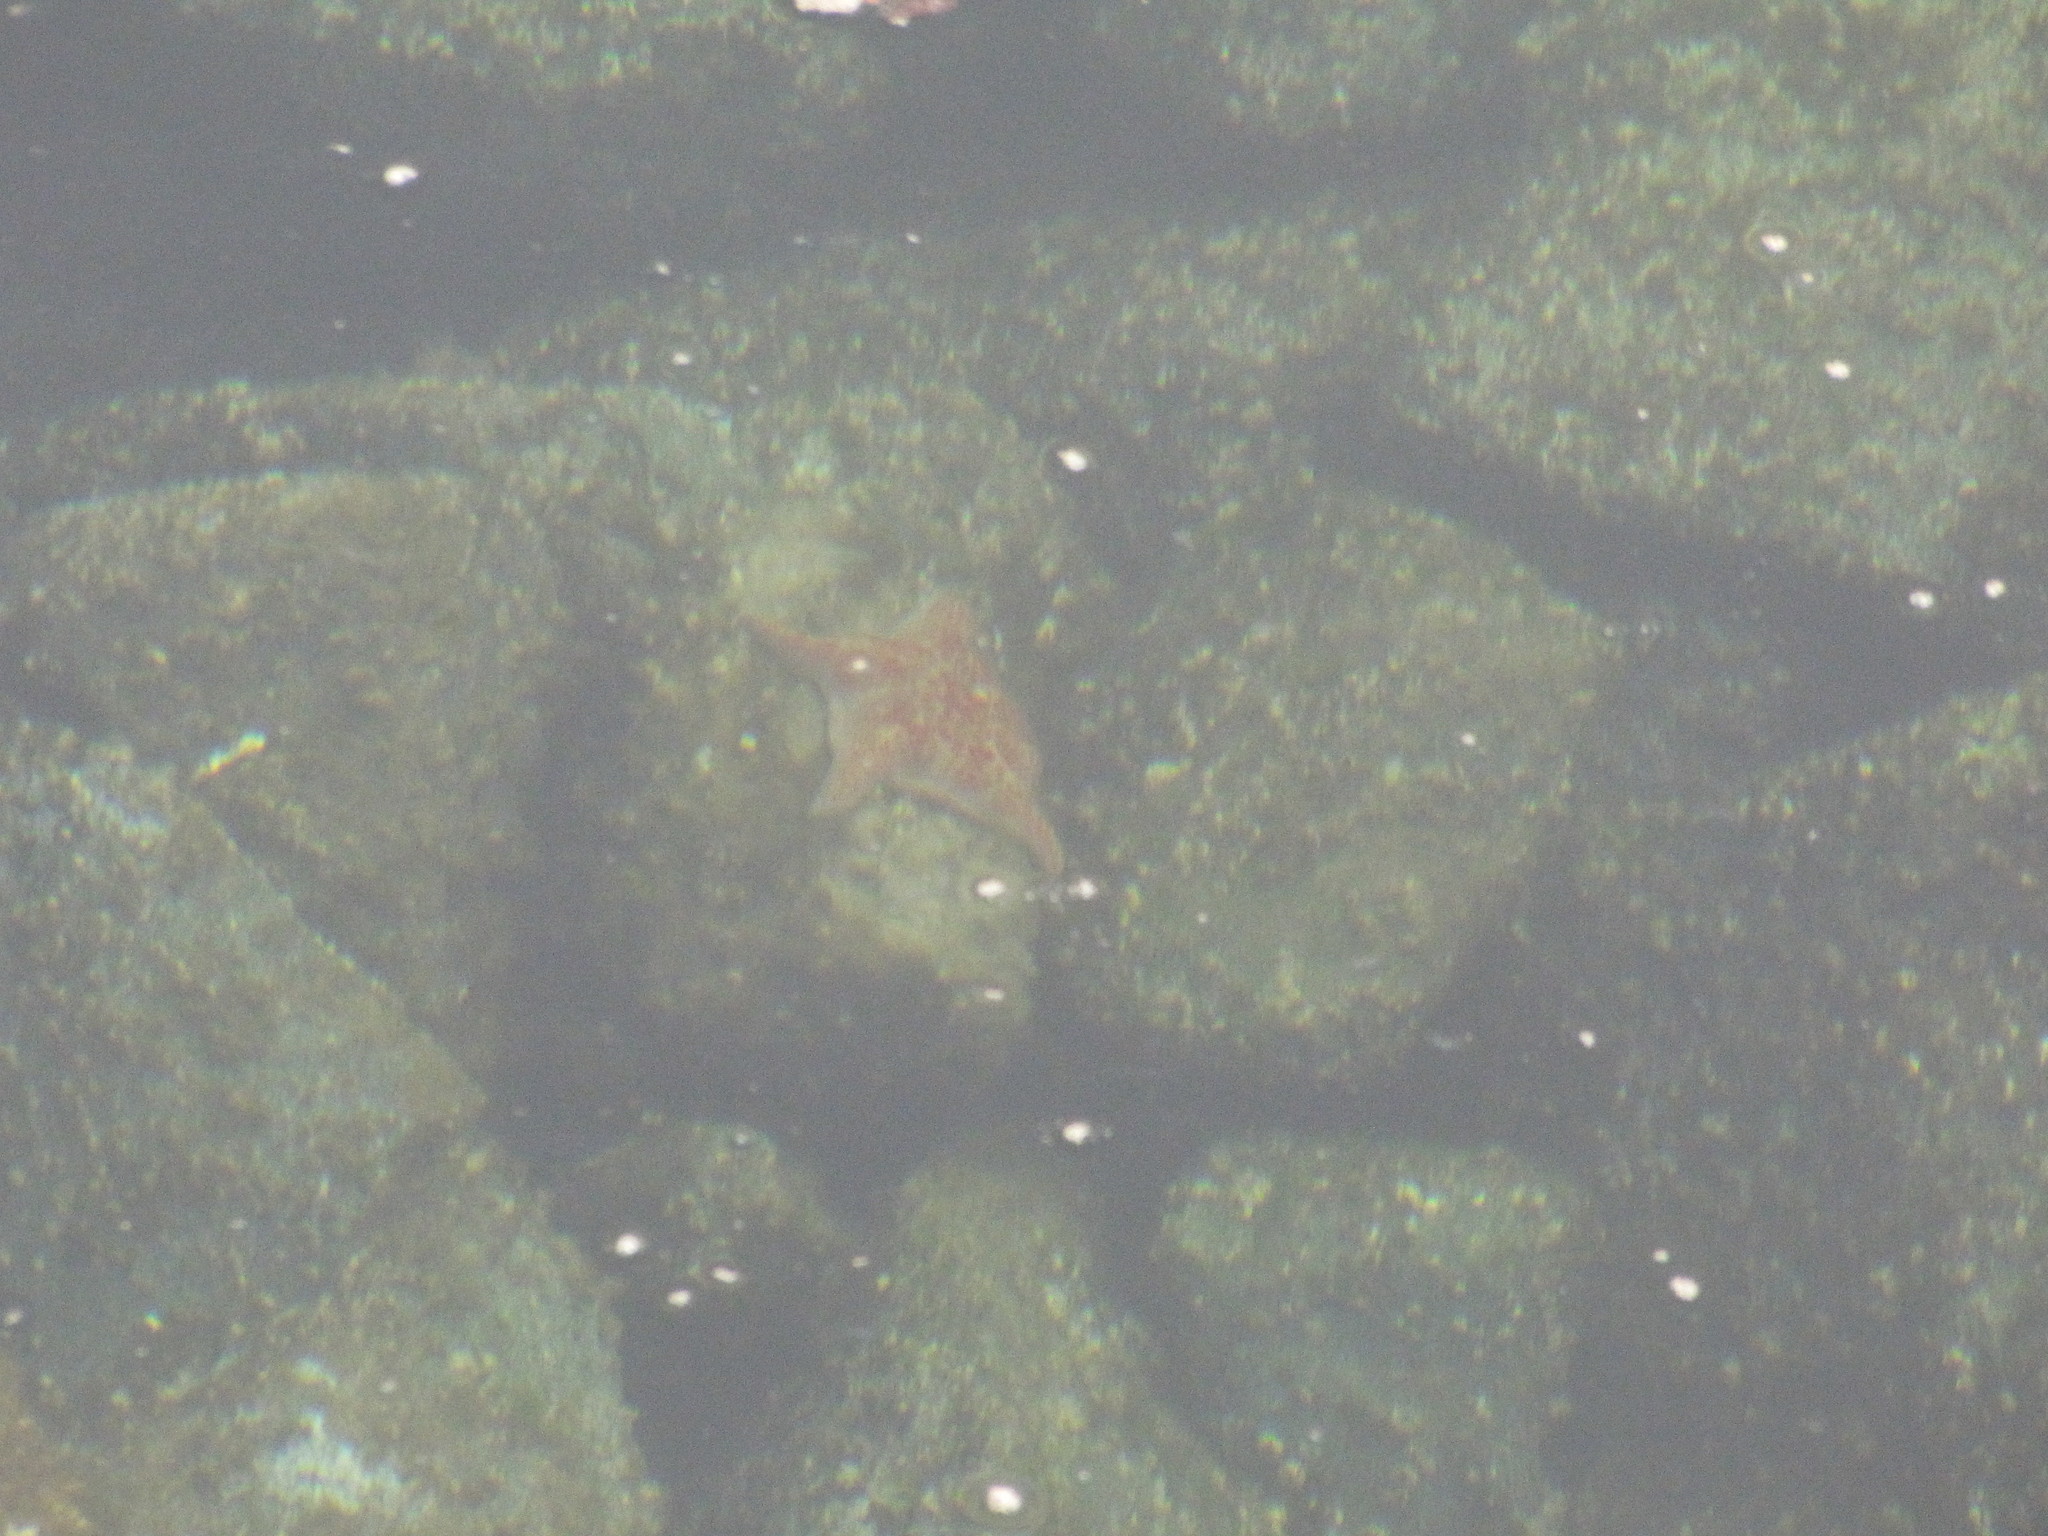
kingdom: Animalia
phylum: Echinodermata
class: Asteroidea
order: Valvatida
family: Asteropseidae
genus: Dermasterias
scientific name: Dermasterias imbricata
